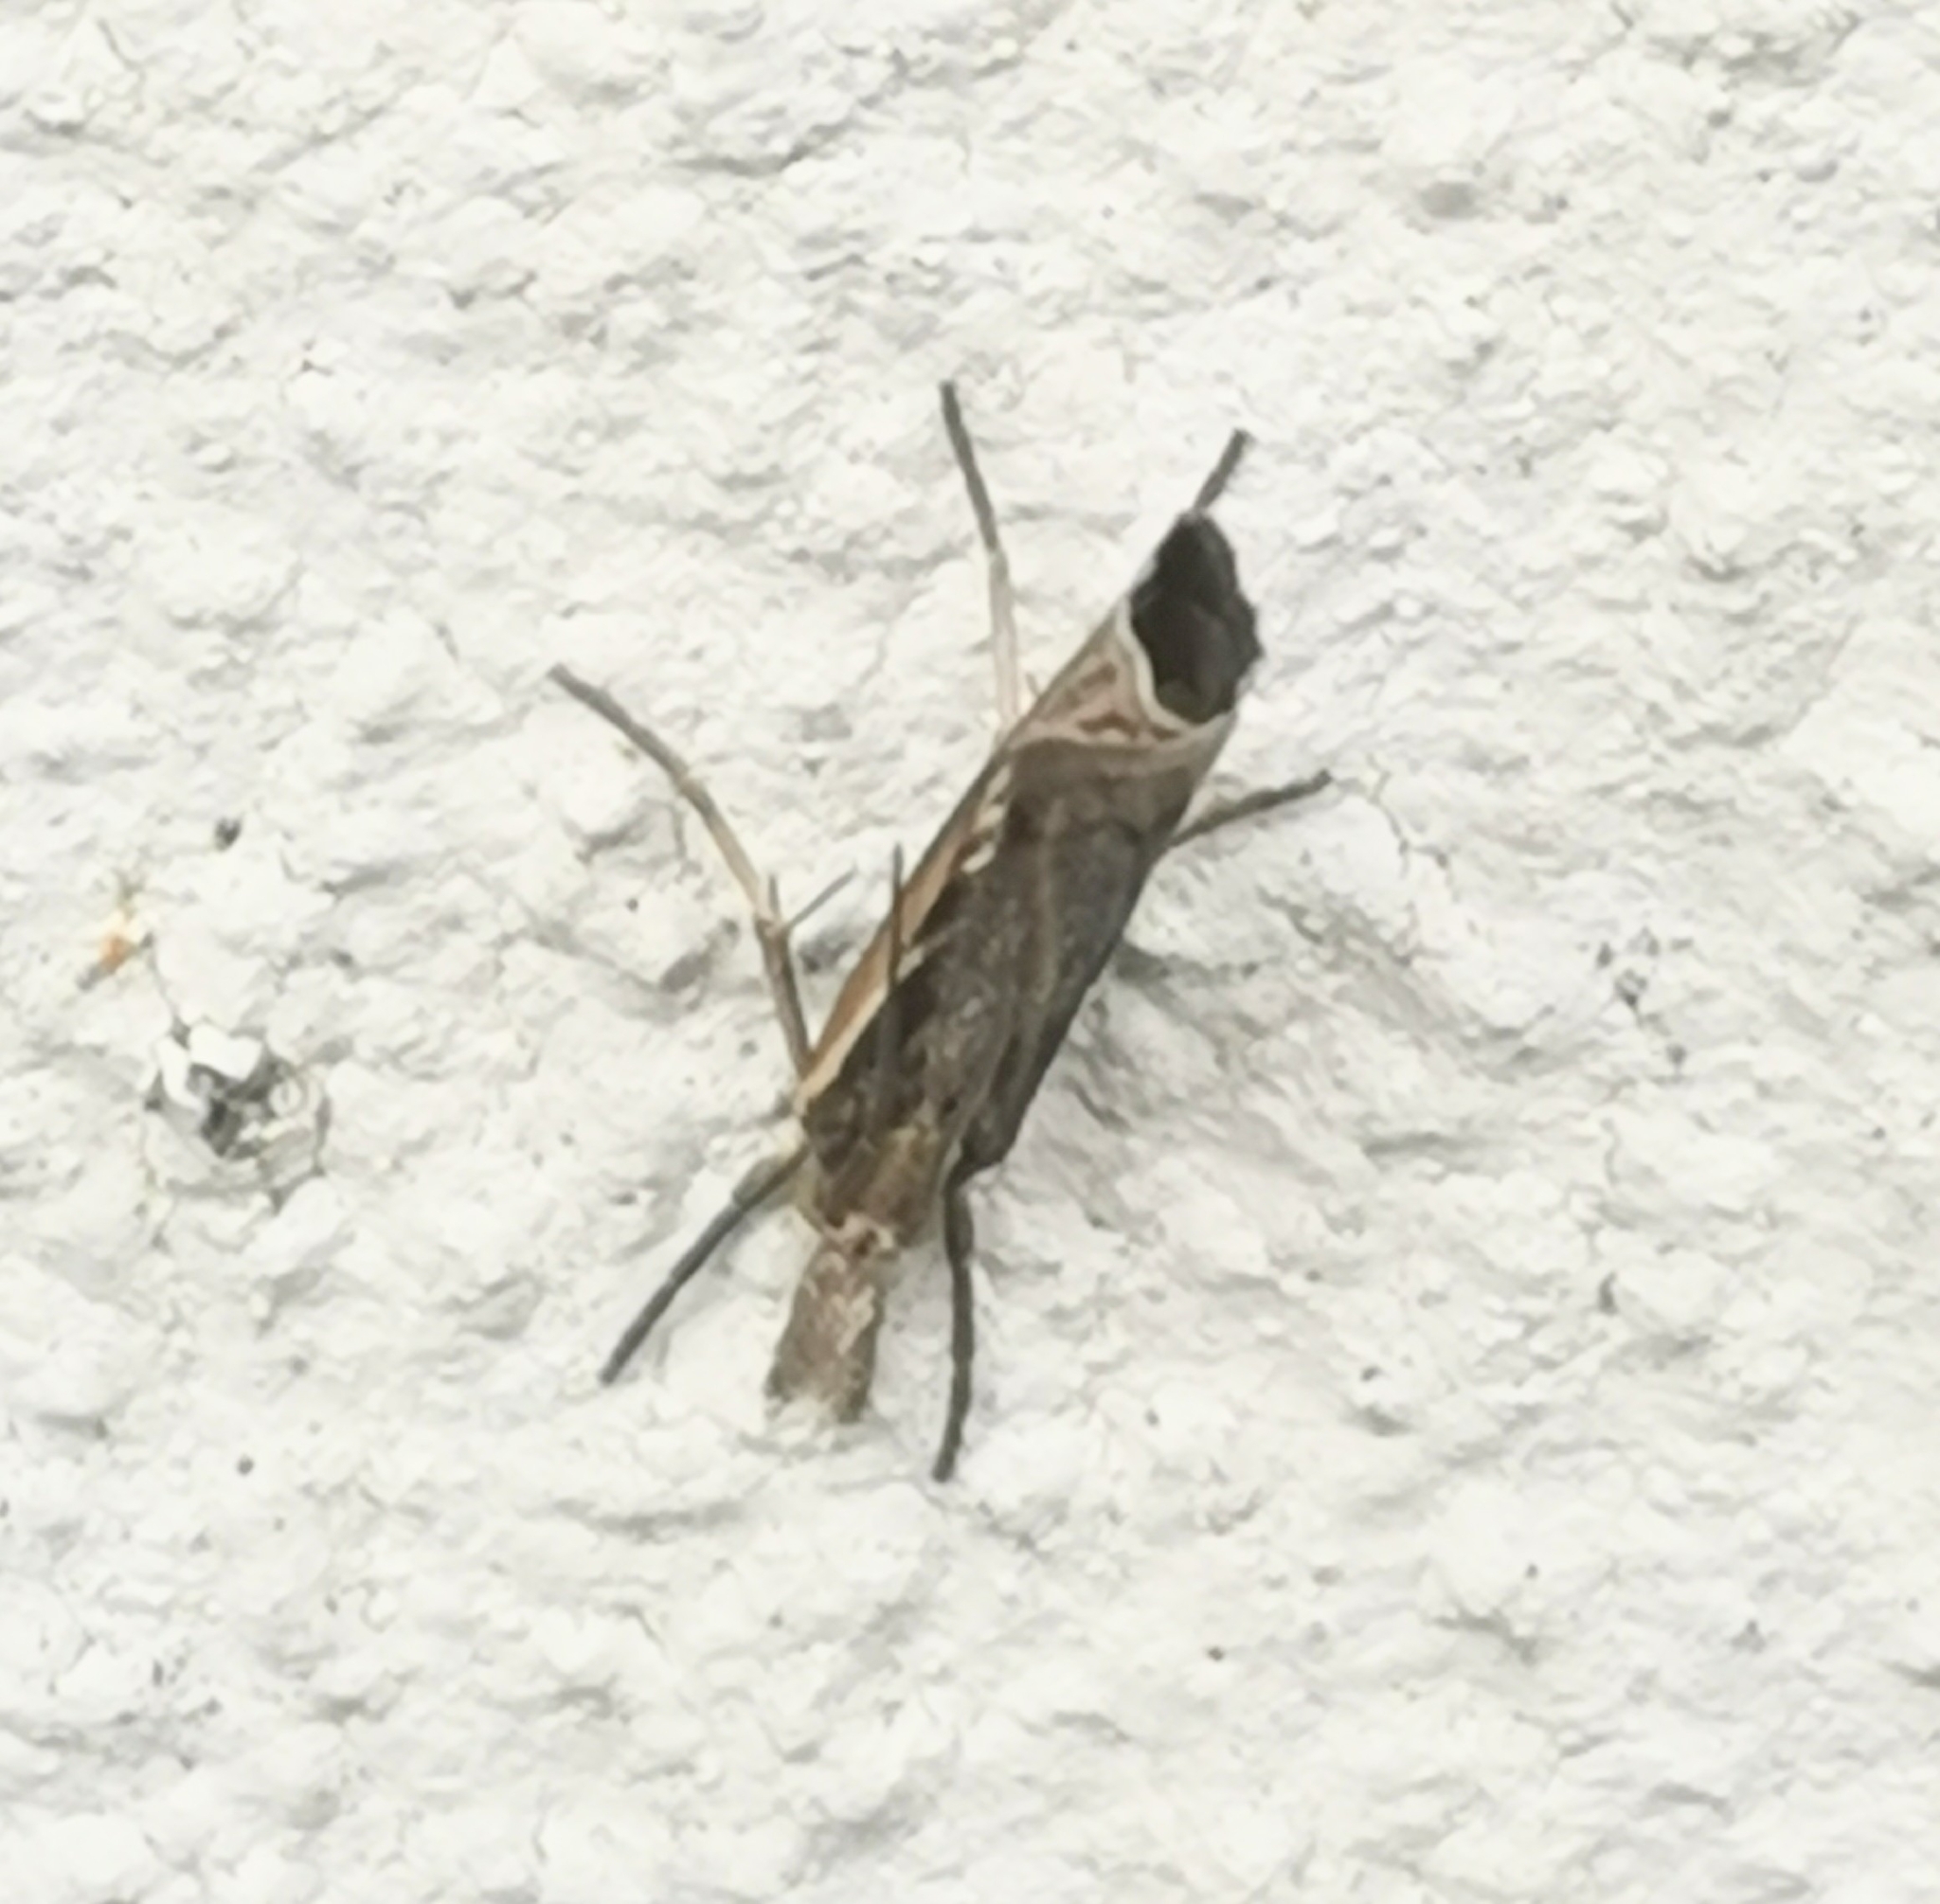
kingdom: Animalia
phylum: Arthropoda
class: Insecta
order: Lepidoptera
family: Crambidae
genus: Pediasia
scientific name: Pediasia aridella
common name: Salt-marsh grass-veneer
